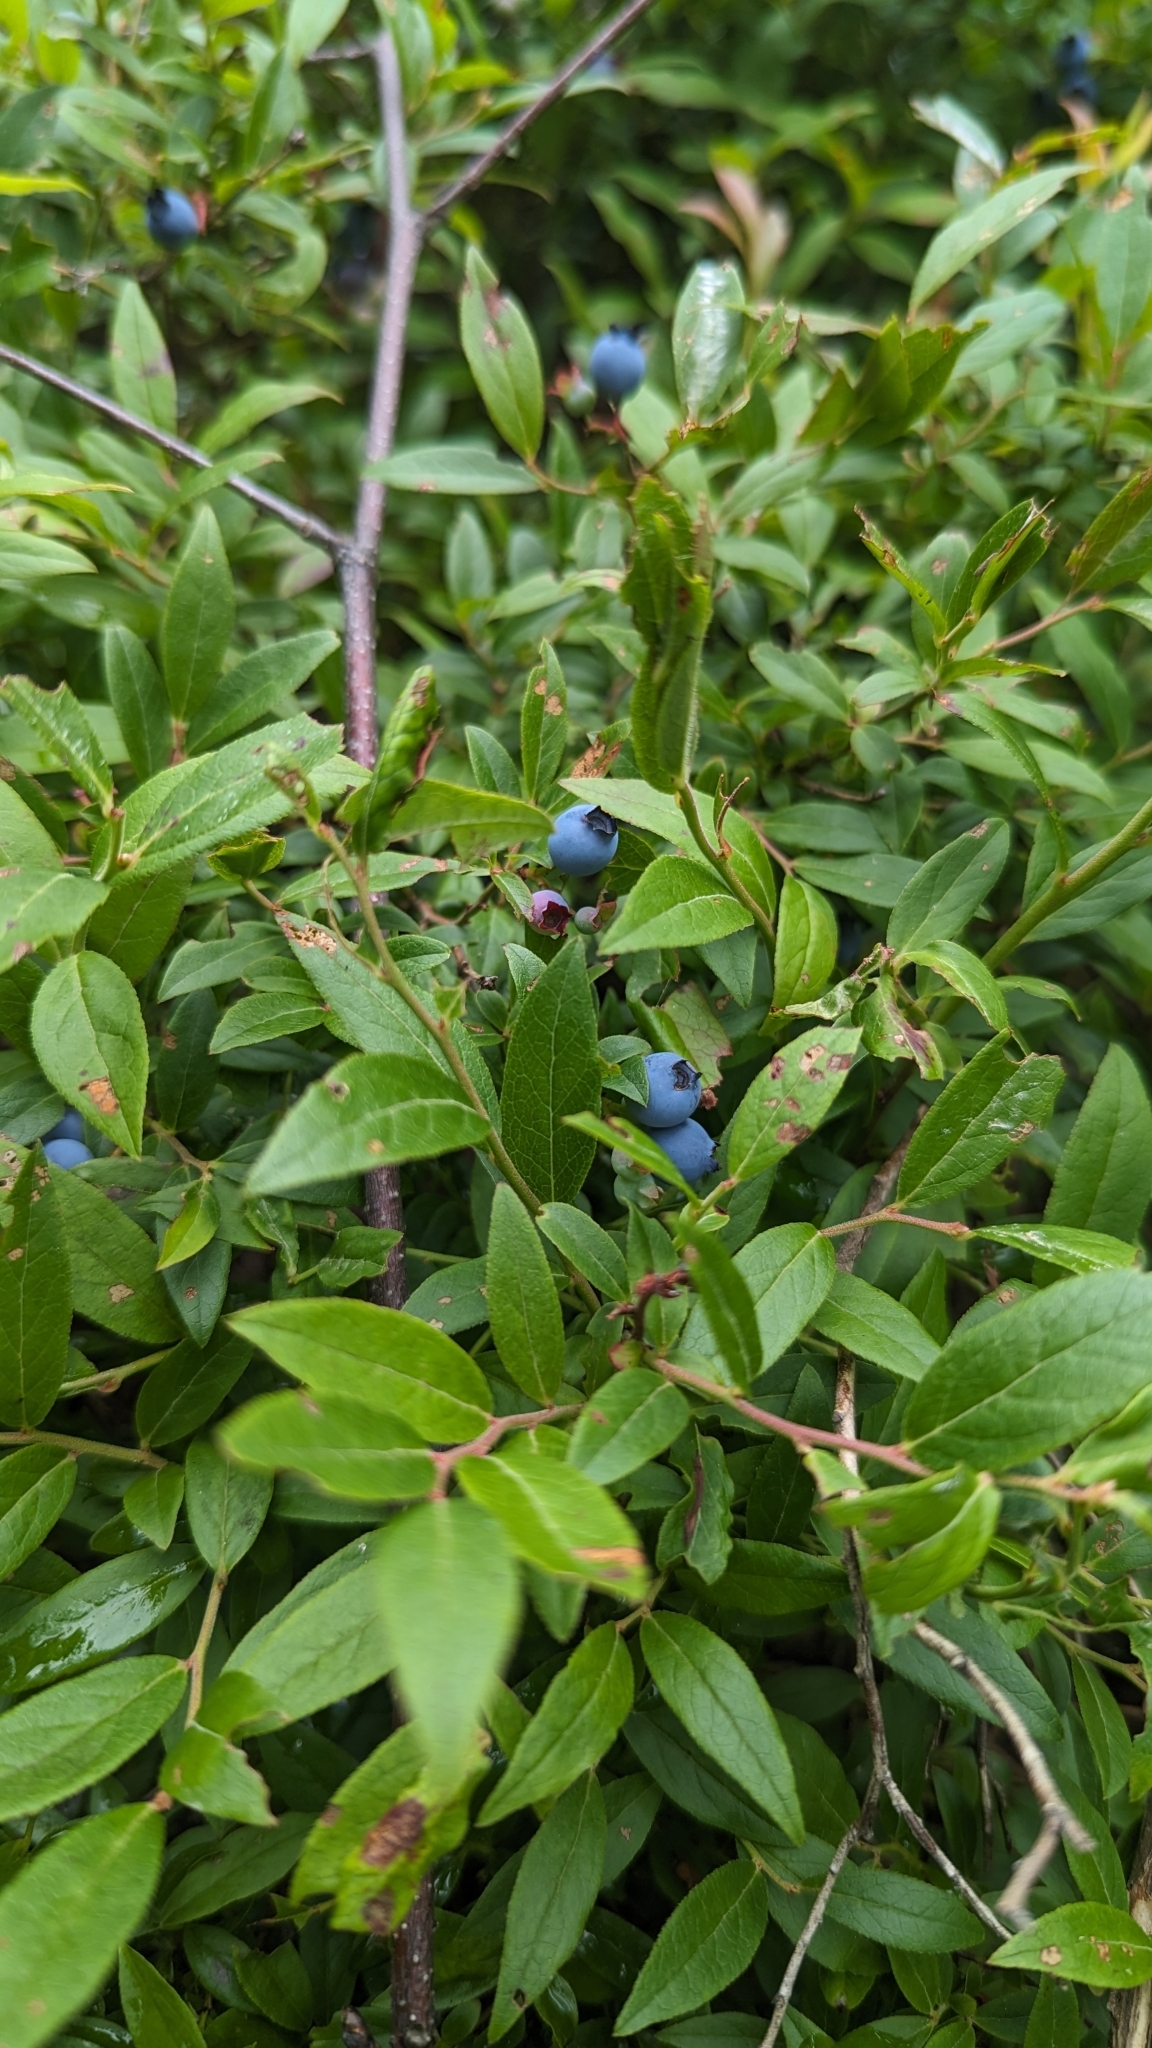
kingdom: Plantae
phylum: Tracheophyta
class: Magnoliopsida
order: Ericales
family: Ericaceae
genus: Vaccinium
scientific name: Vaccinium angustifolium
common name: Early lowbush blueberry
